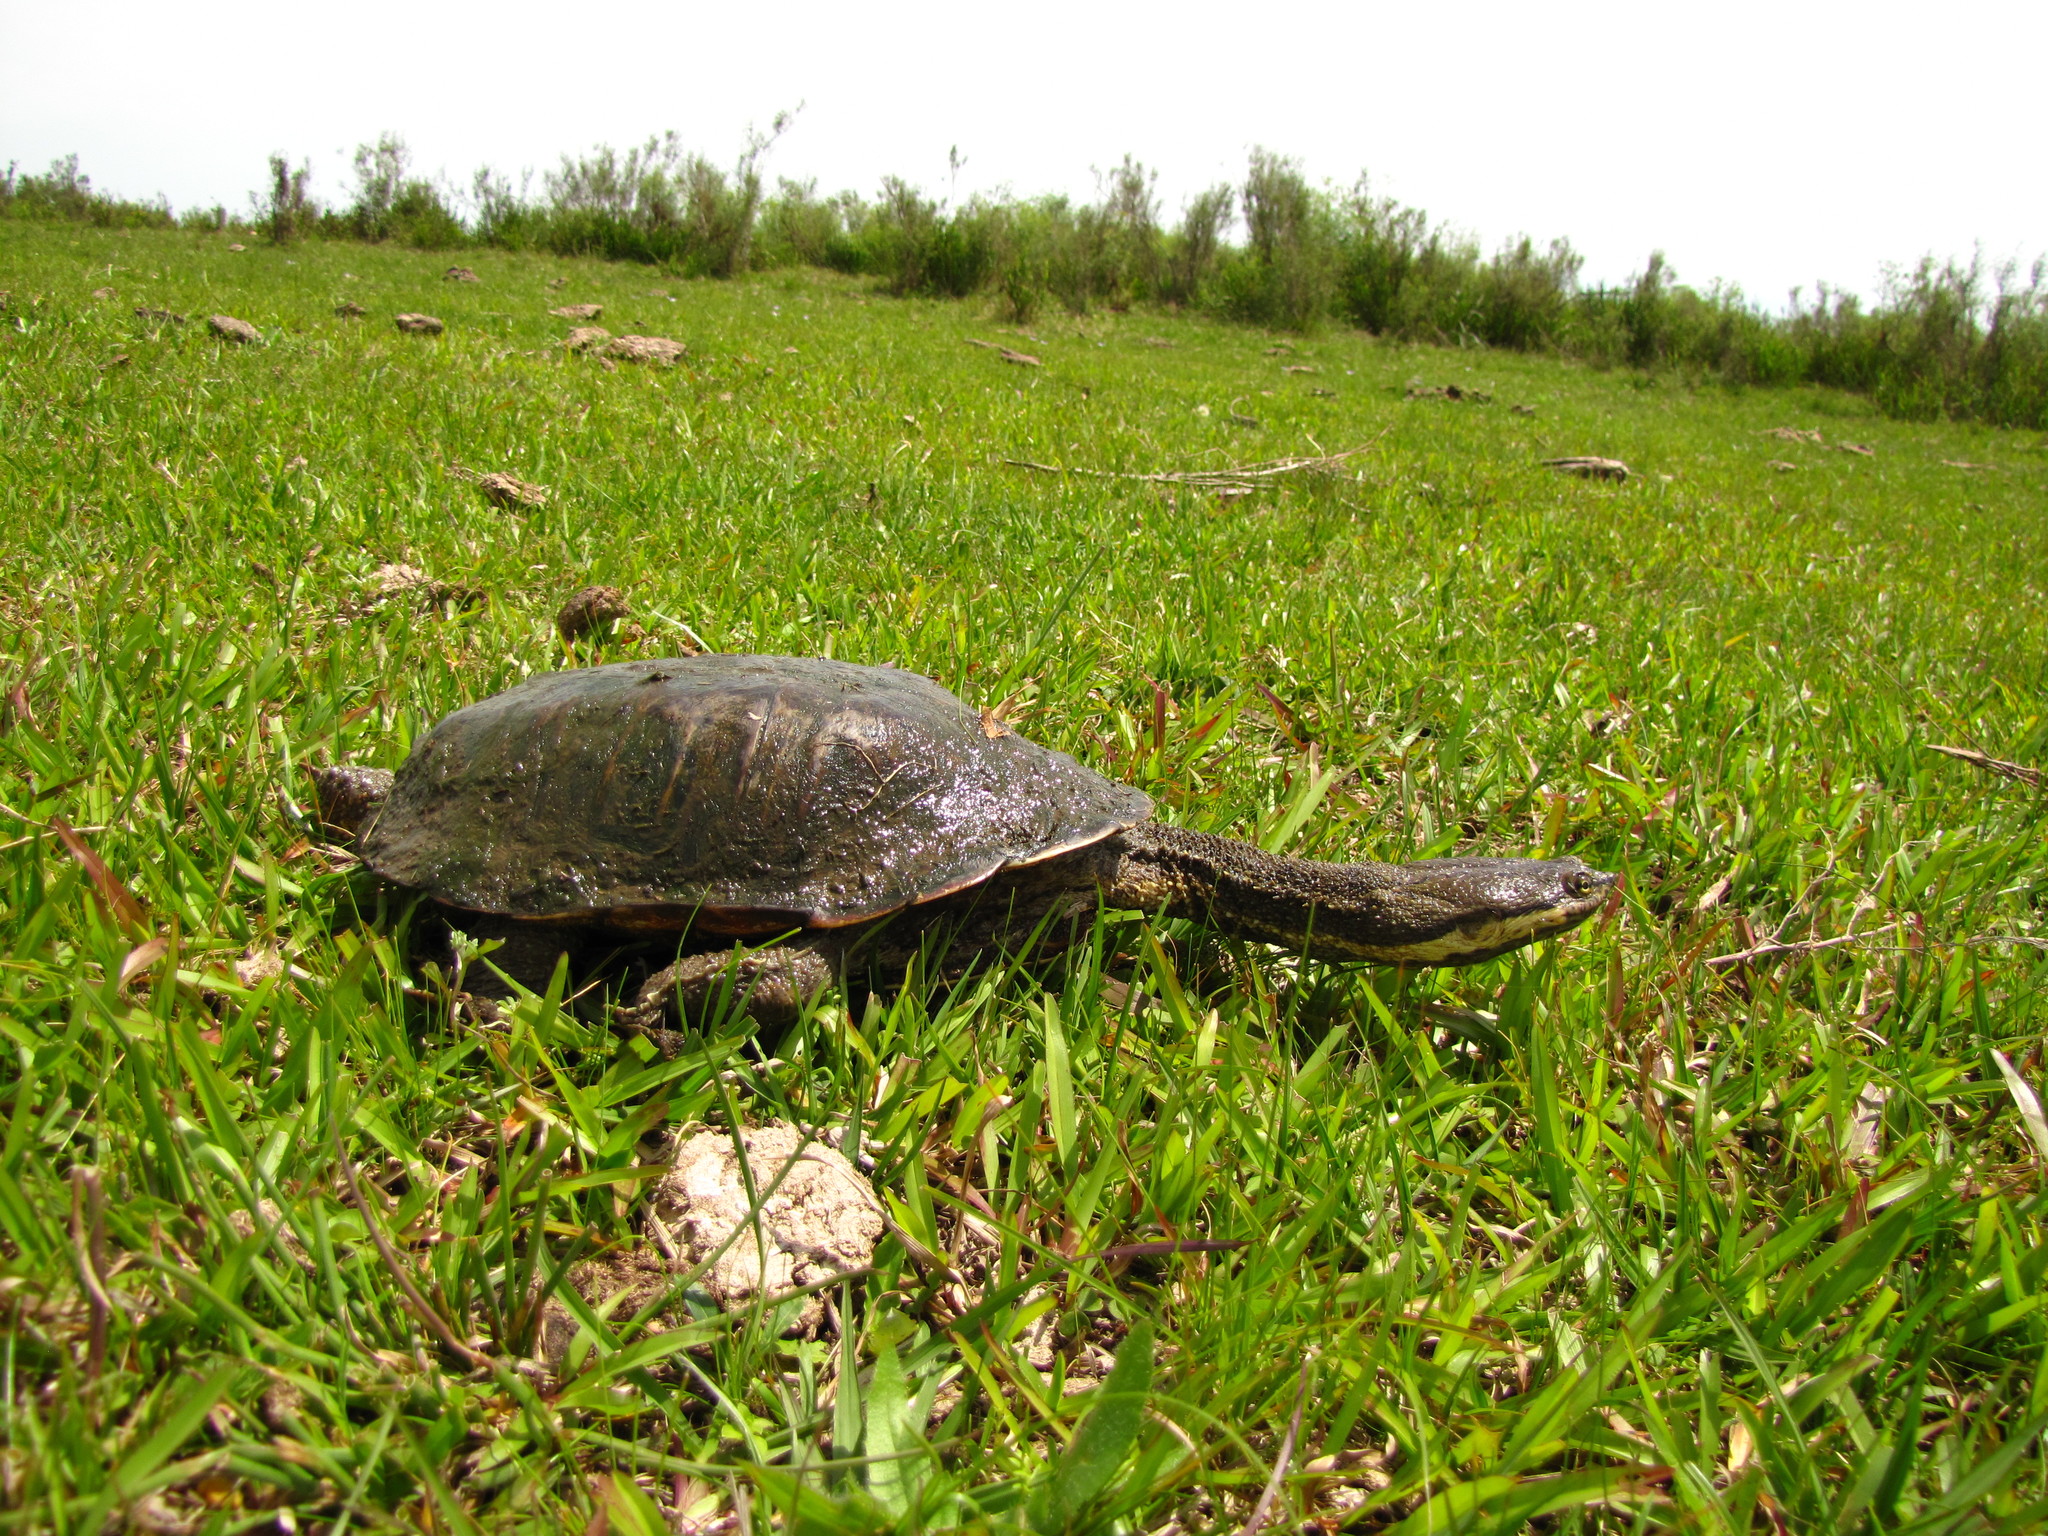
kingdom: Animalia
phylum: Chordata
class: Testudines
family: Chelidae
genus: Hydromedusa
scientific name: Hydromedusa tectifera
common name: Argentine snake-necked turtle
